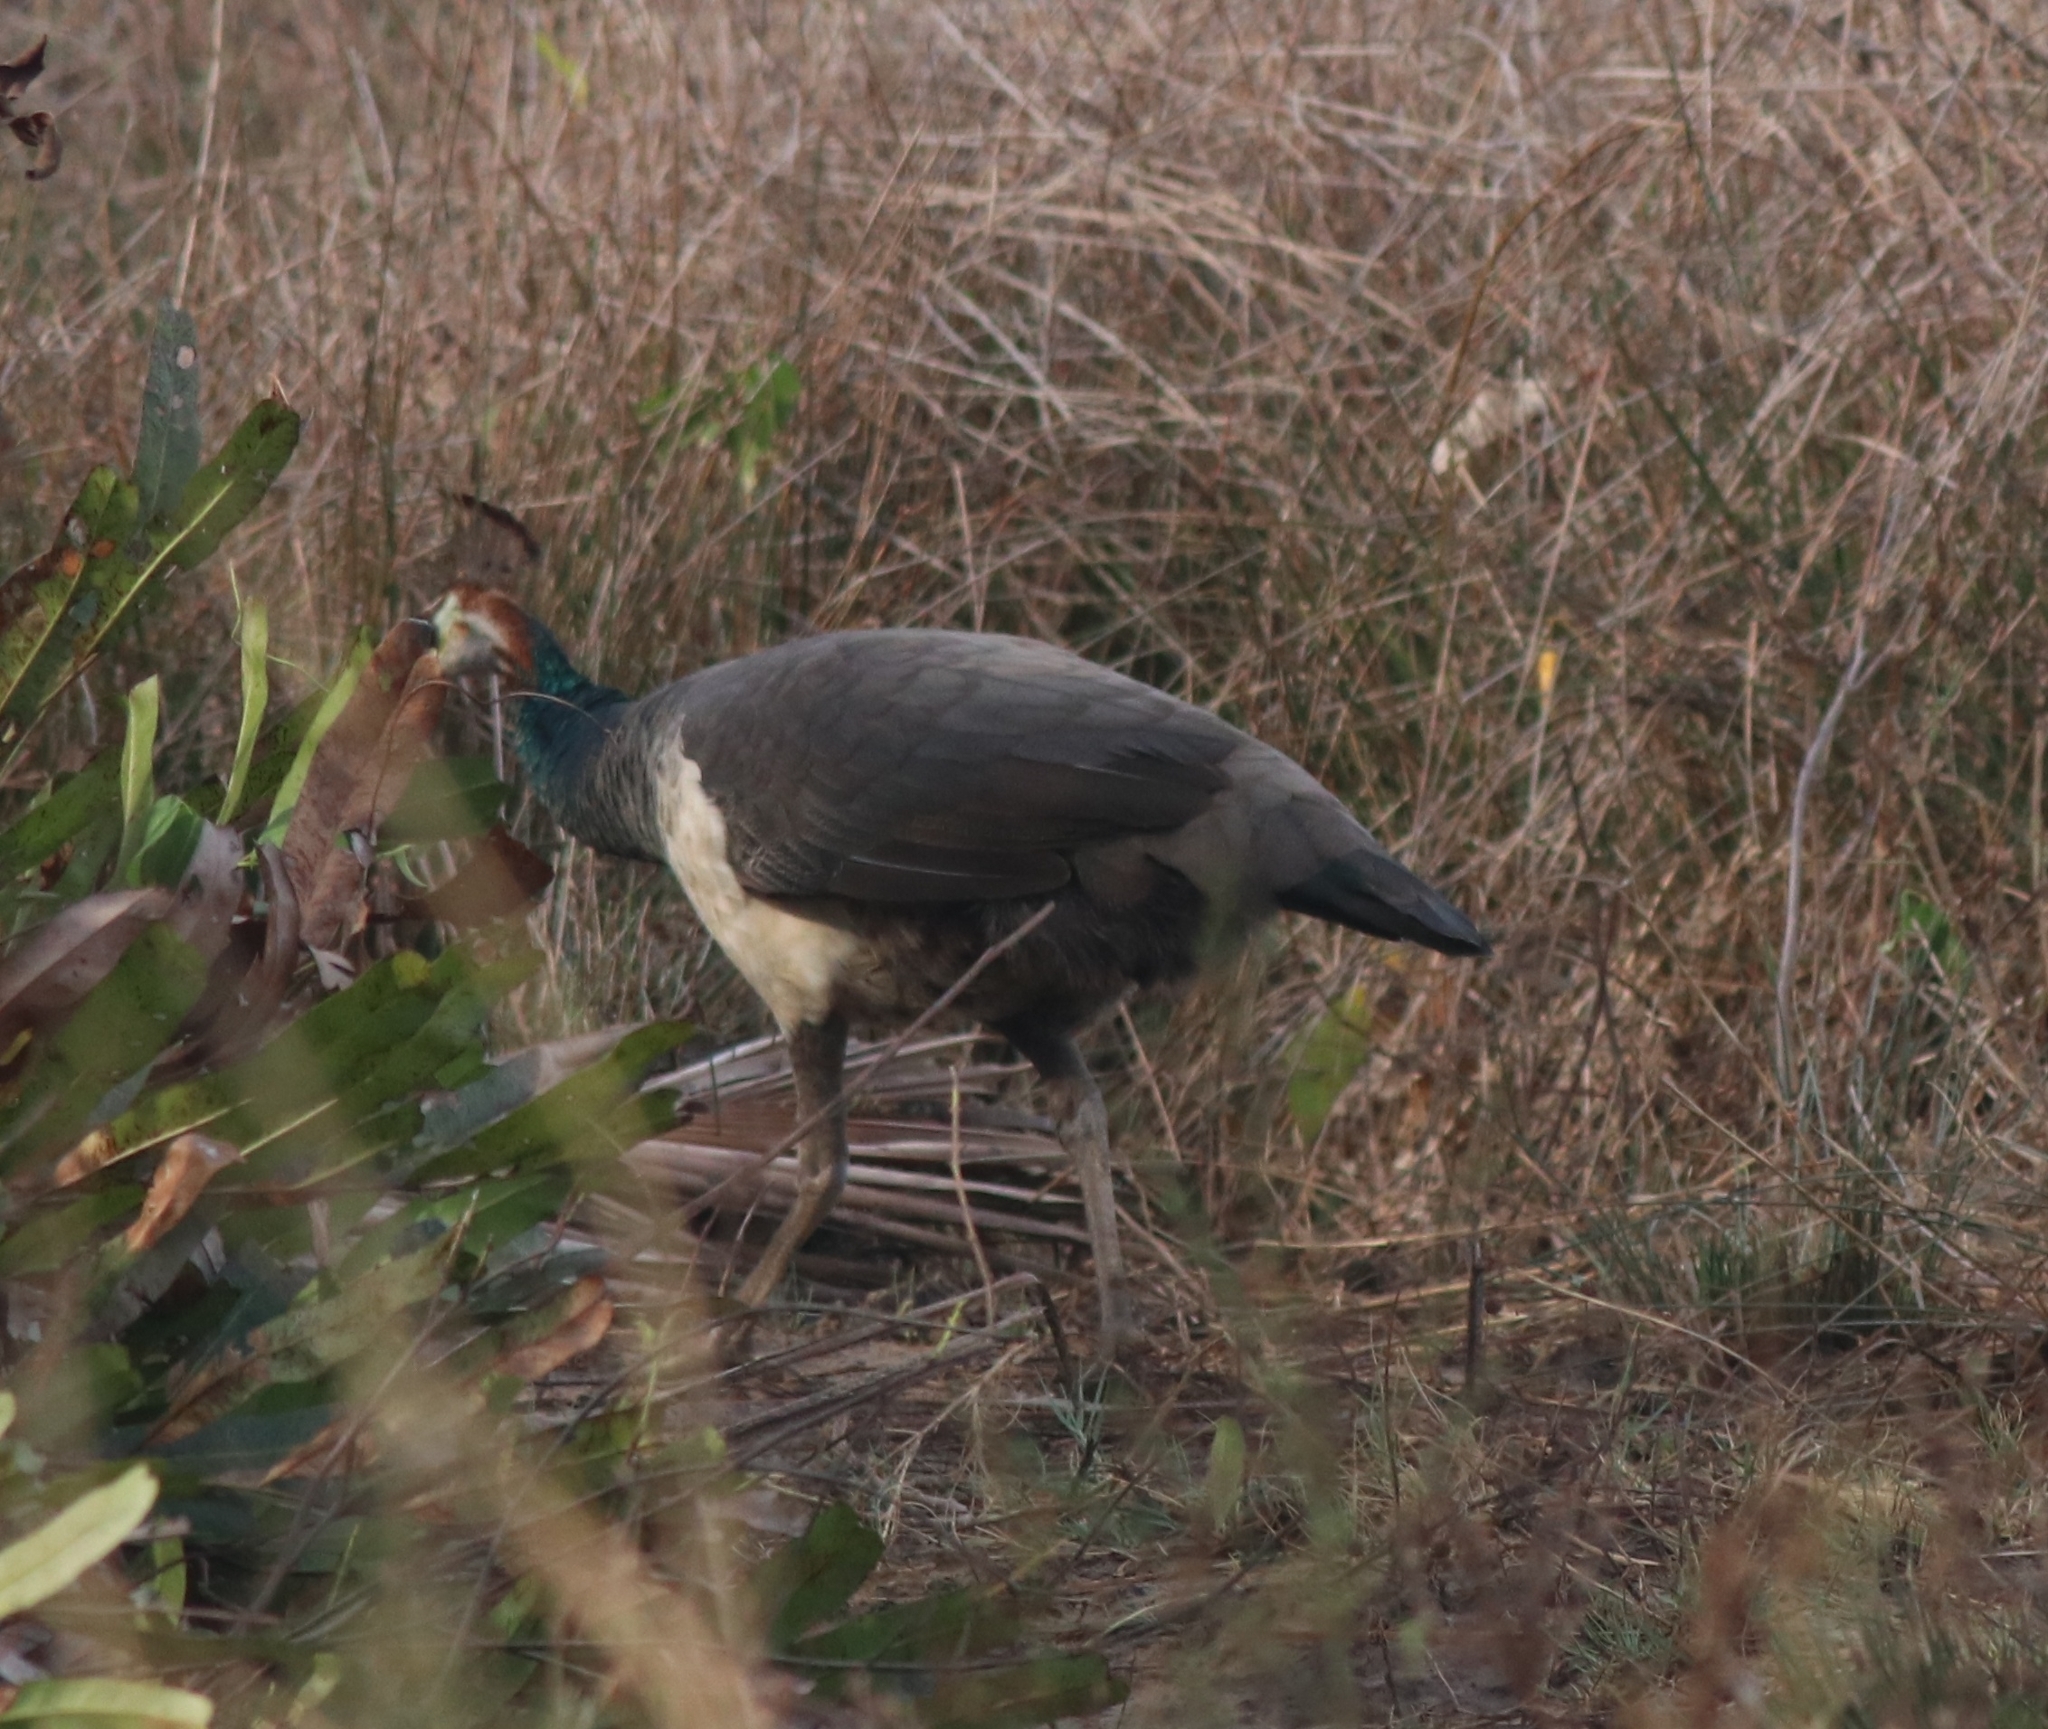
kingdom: Animalia
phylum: Chordata
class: Aves
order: Galliformes
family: Phasianidae
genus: Pavo
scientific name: Pavo cristatus
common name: Indian peafowl
